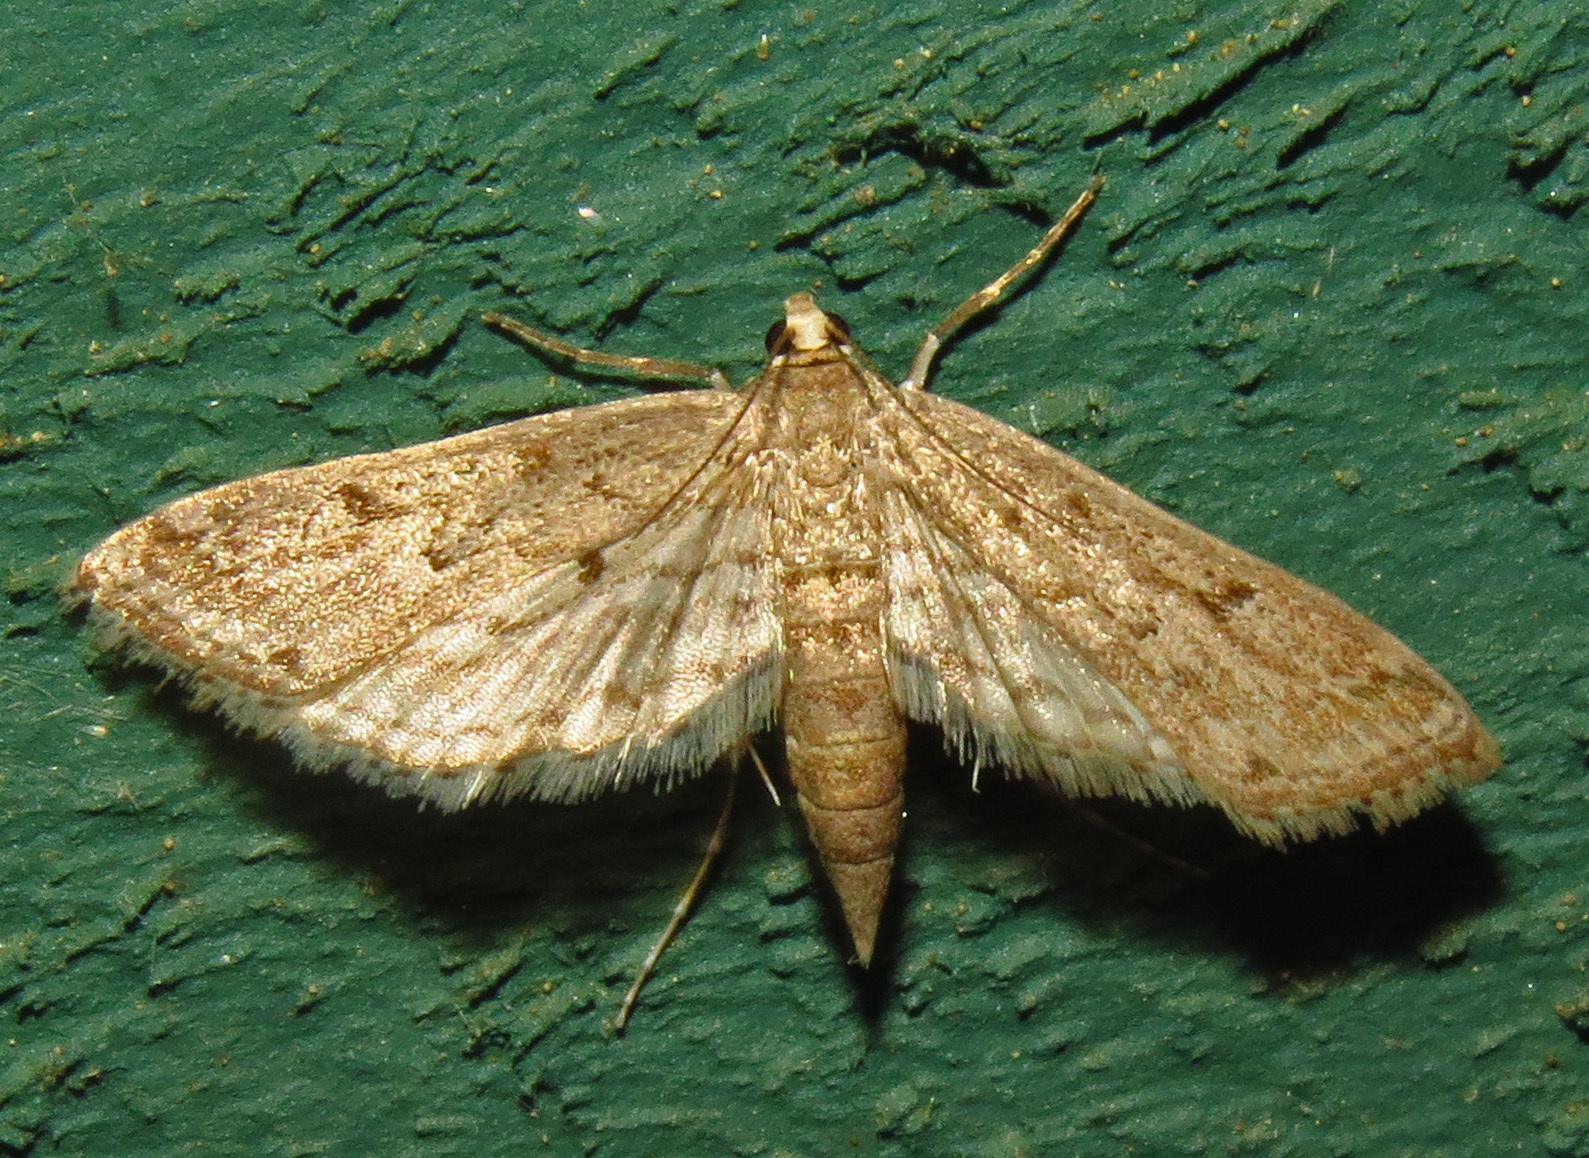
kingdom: Animalia
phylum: Arthropoda
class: Insecta
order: Lepidoptera
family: Crambidae
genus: Parapoynx
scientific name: Parapoynx allionealis
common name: Bladderwort casemaker
